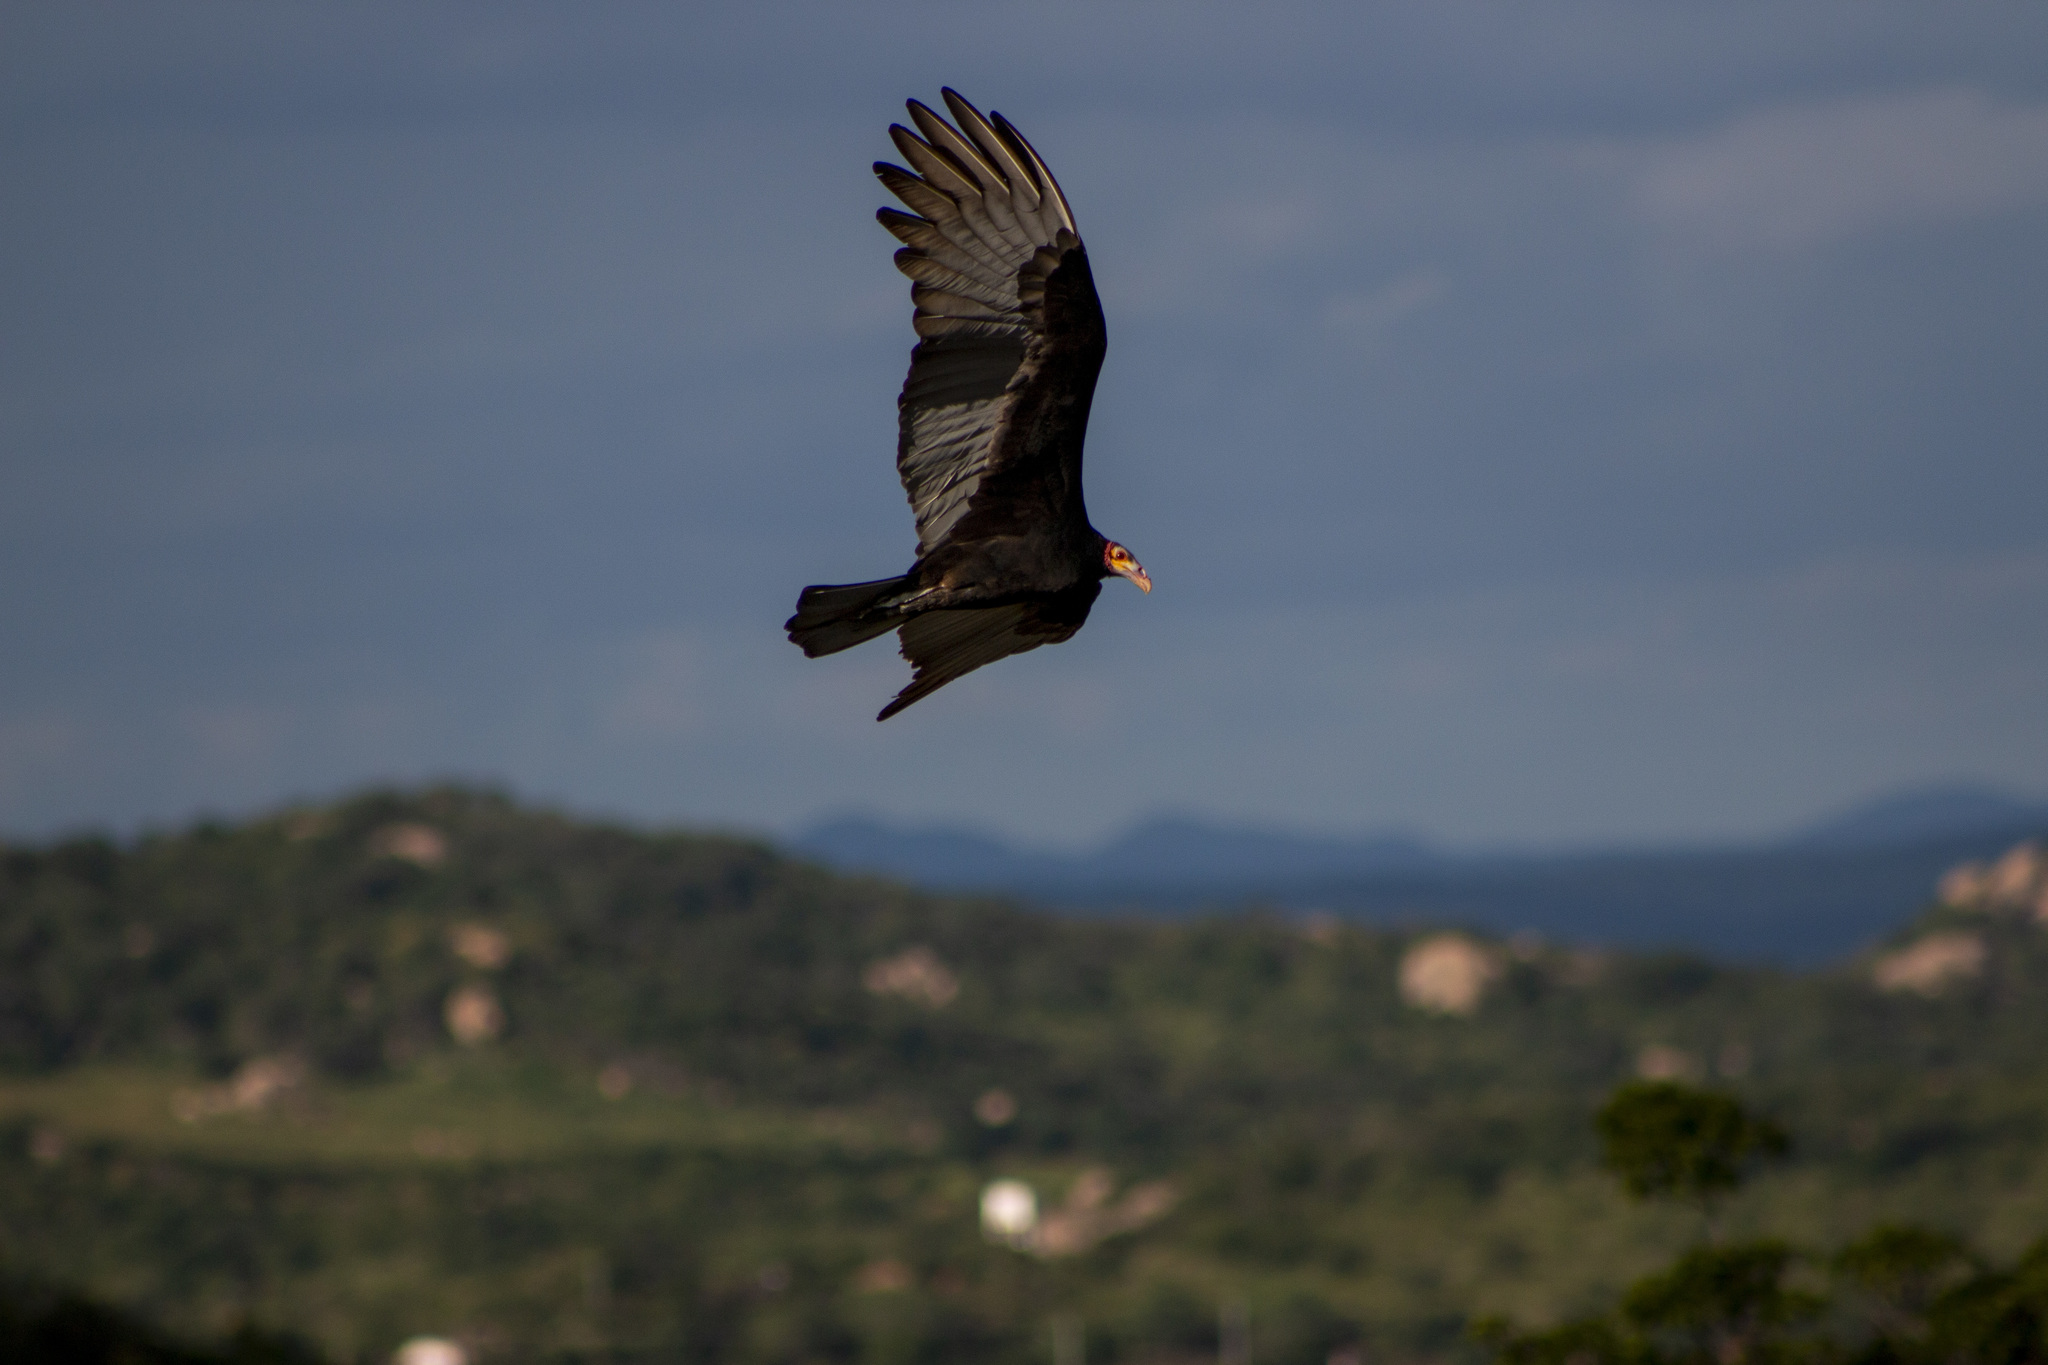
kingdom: Animalia
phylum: Chordata
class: Aves
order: Accipitriformes
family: Cathartidae
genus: Cathartes
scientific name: Cathartes burrovianus
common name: Lesser yellow-headed vulture
